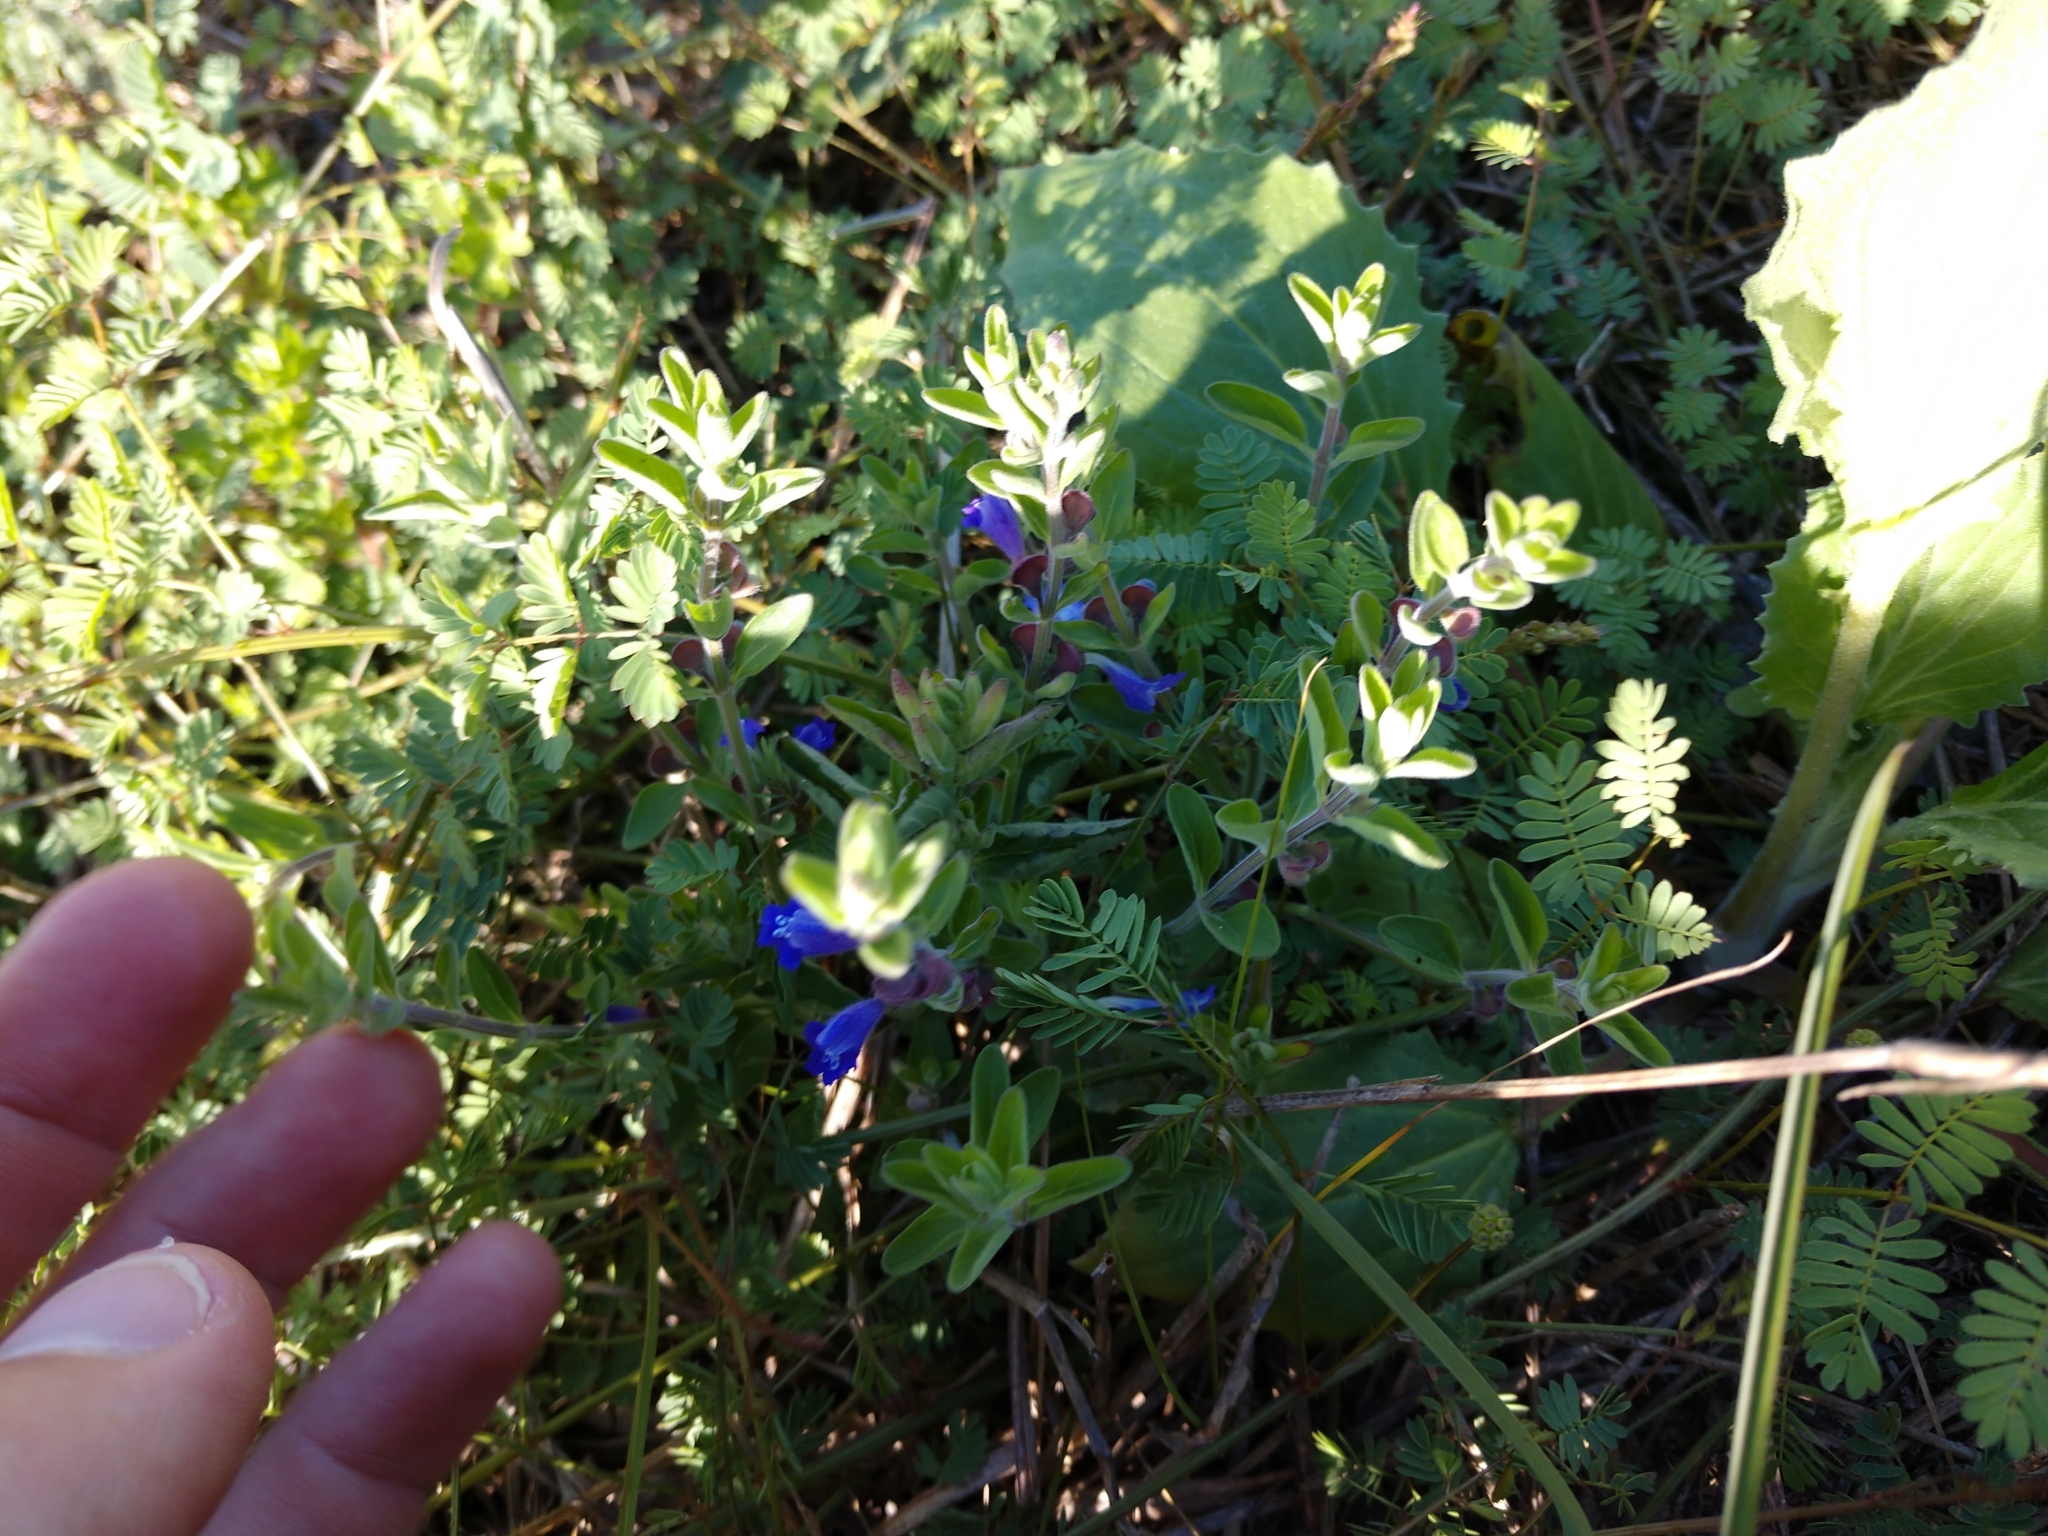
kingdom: Plantae
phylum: Tracheophyta
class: Magnoliopsida
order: Lamiales
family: Lamiaceae
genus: Scutellaria
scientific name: Scutellaria drummondii
